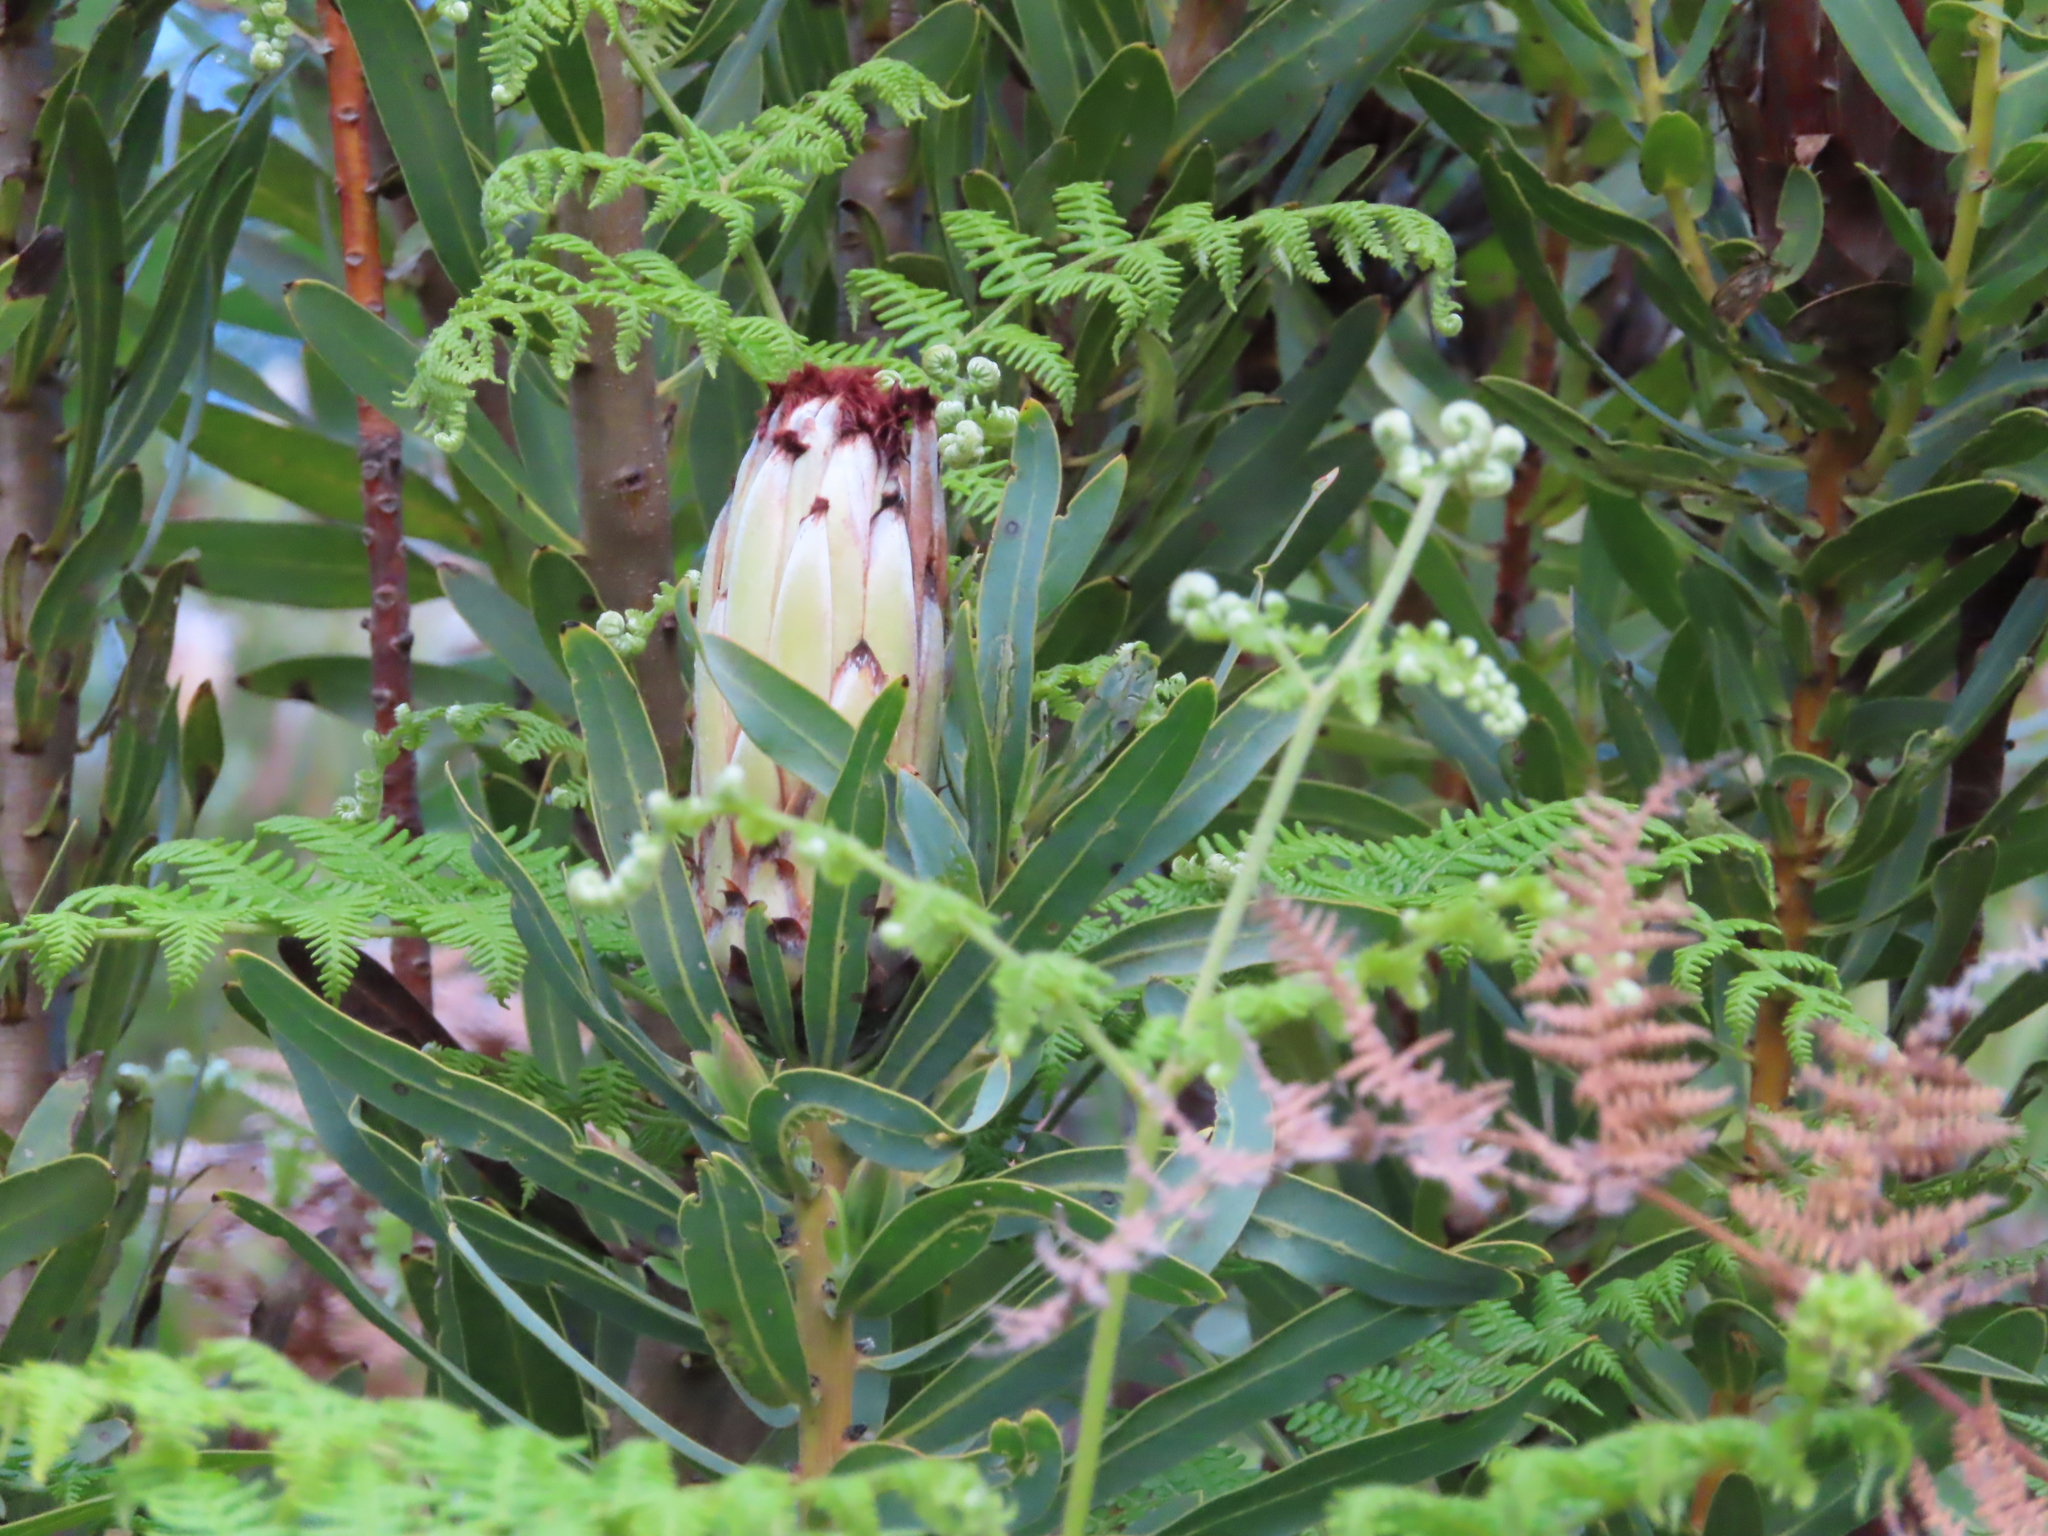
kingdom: Plantae
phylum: Tracheophyta
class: Magnoliopsida
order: Proteales
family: Proteaceae
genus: Protea
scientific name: Protea neriifolia
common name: Blue sugarbush
